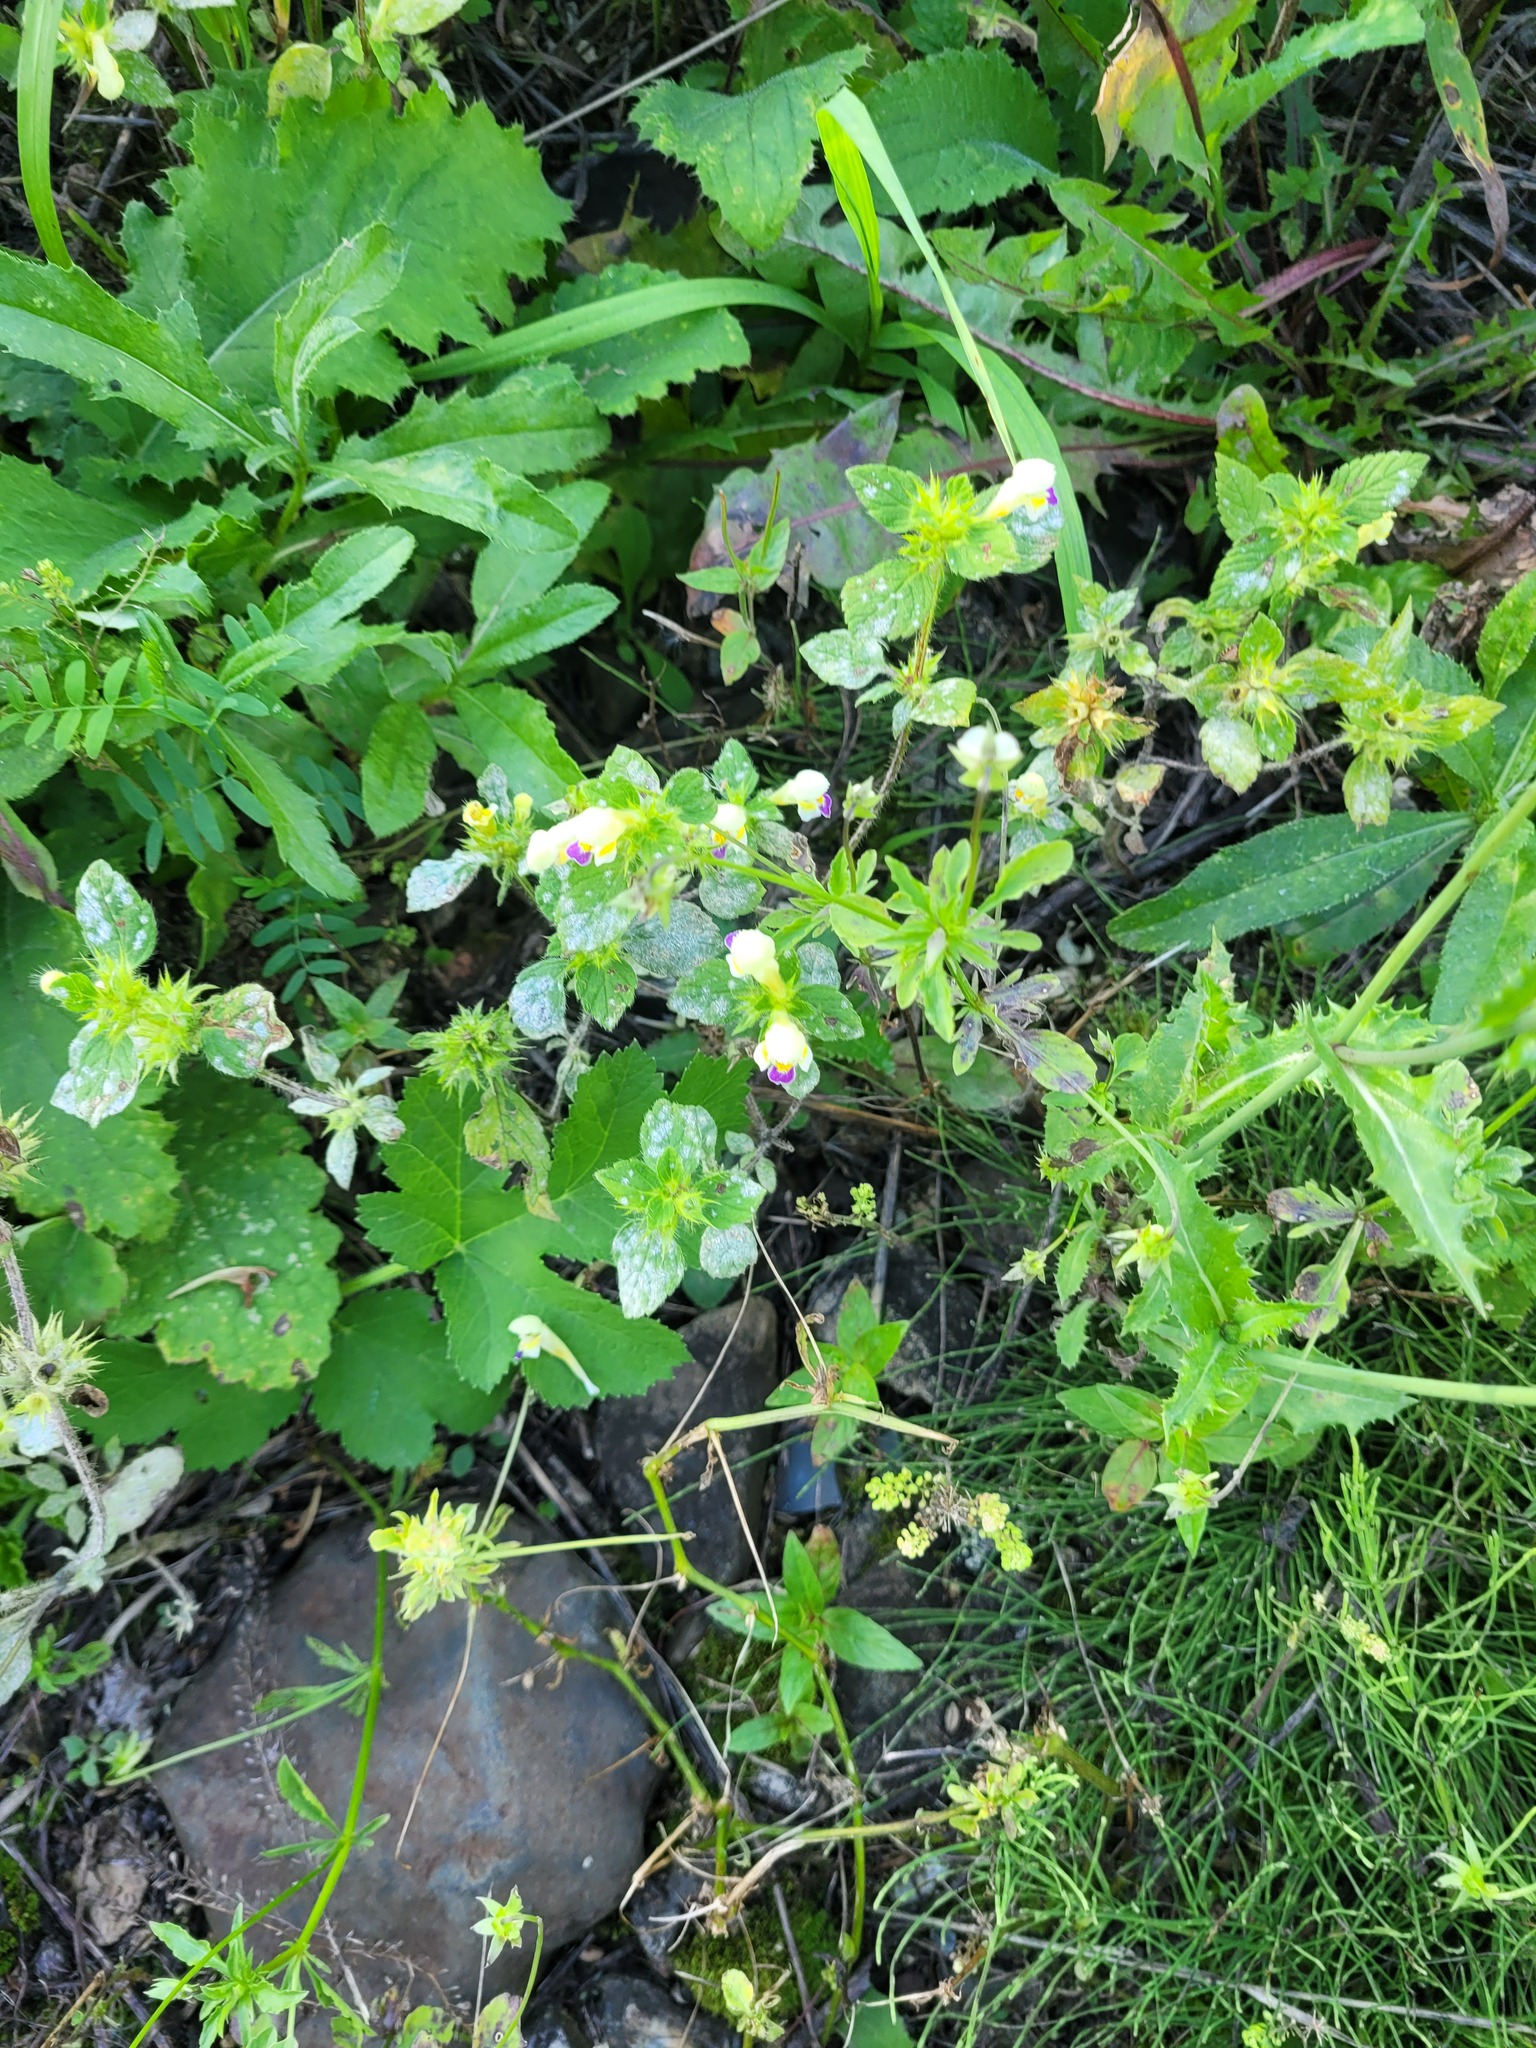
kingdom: Plantae
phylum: Tracheophyta
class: Magnoliopsida
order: Lamiales
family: Lamiaceae
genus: Galeopsis
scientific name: Galeopsis speciosa
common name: Large-flowered hemp-nettle
